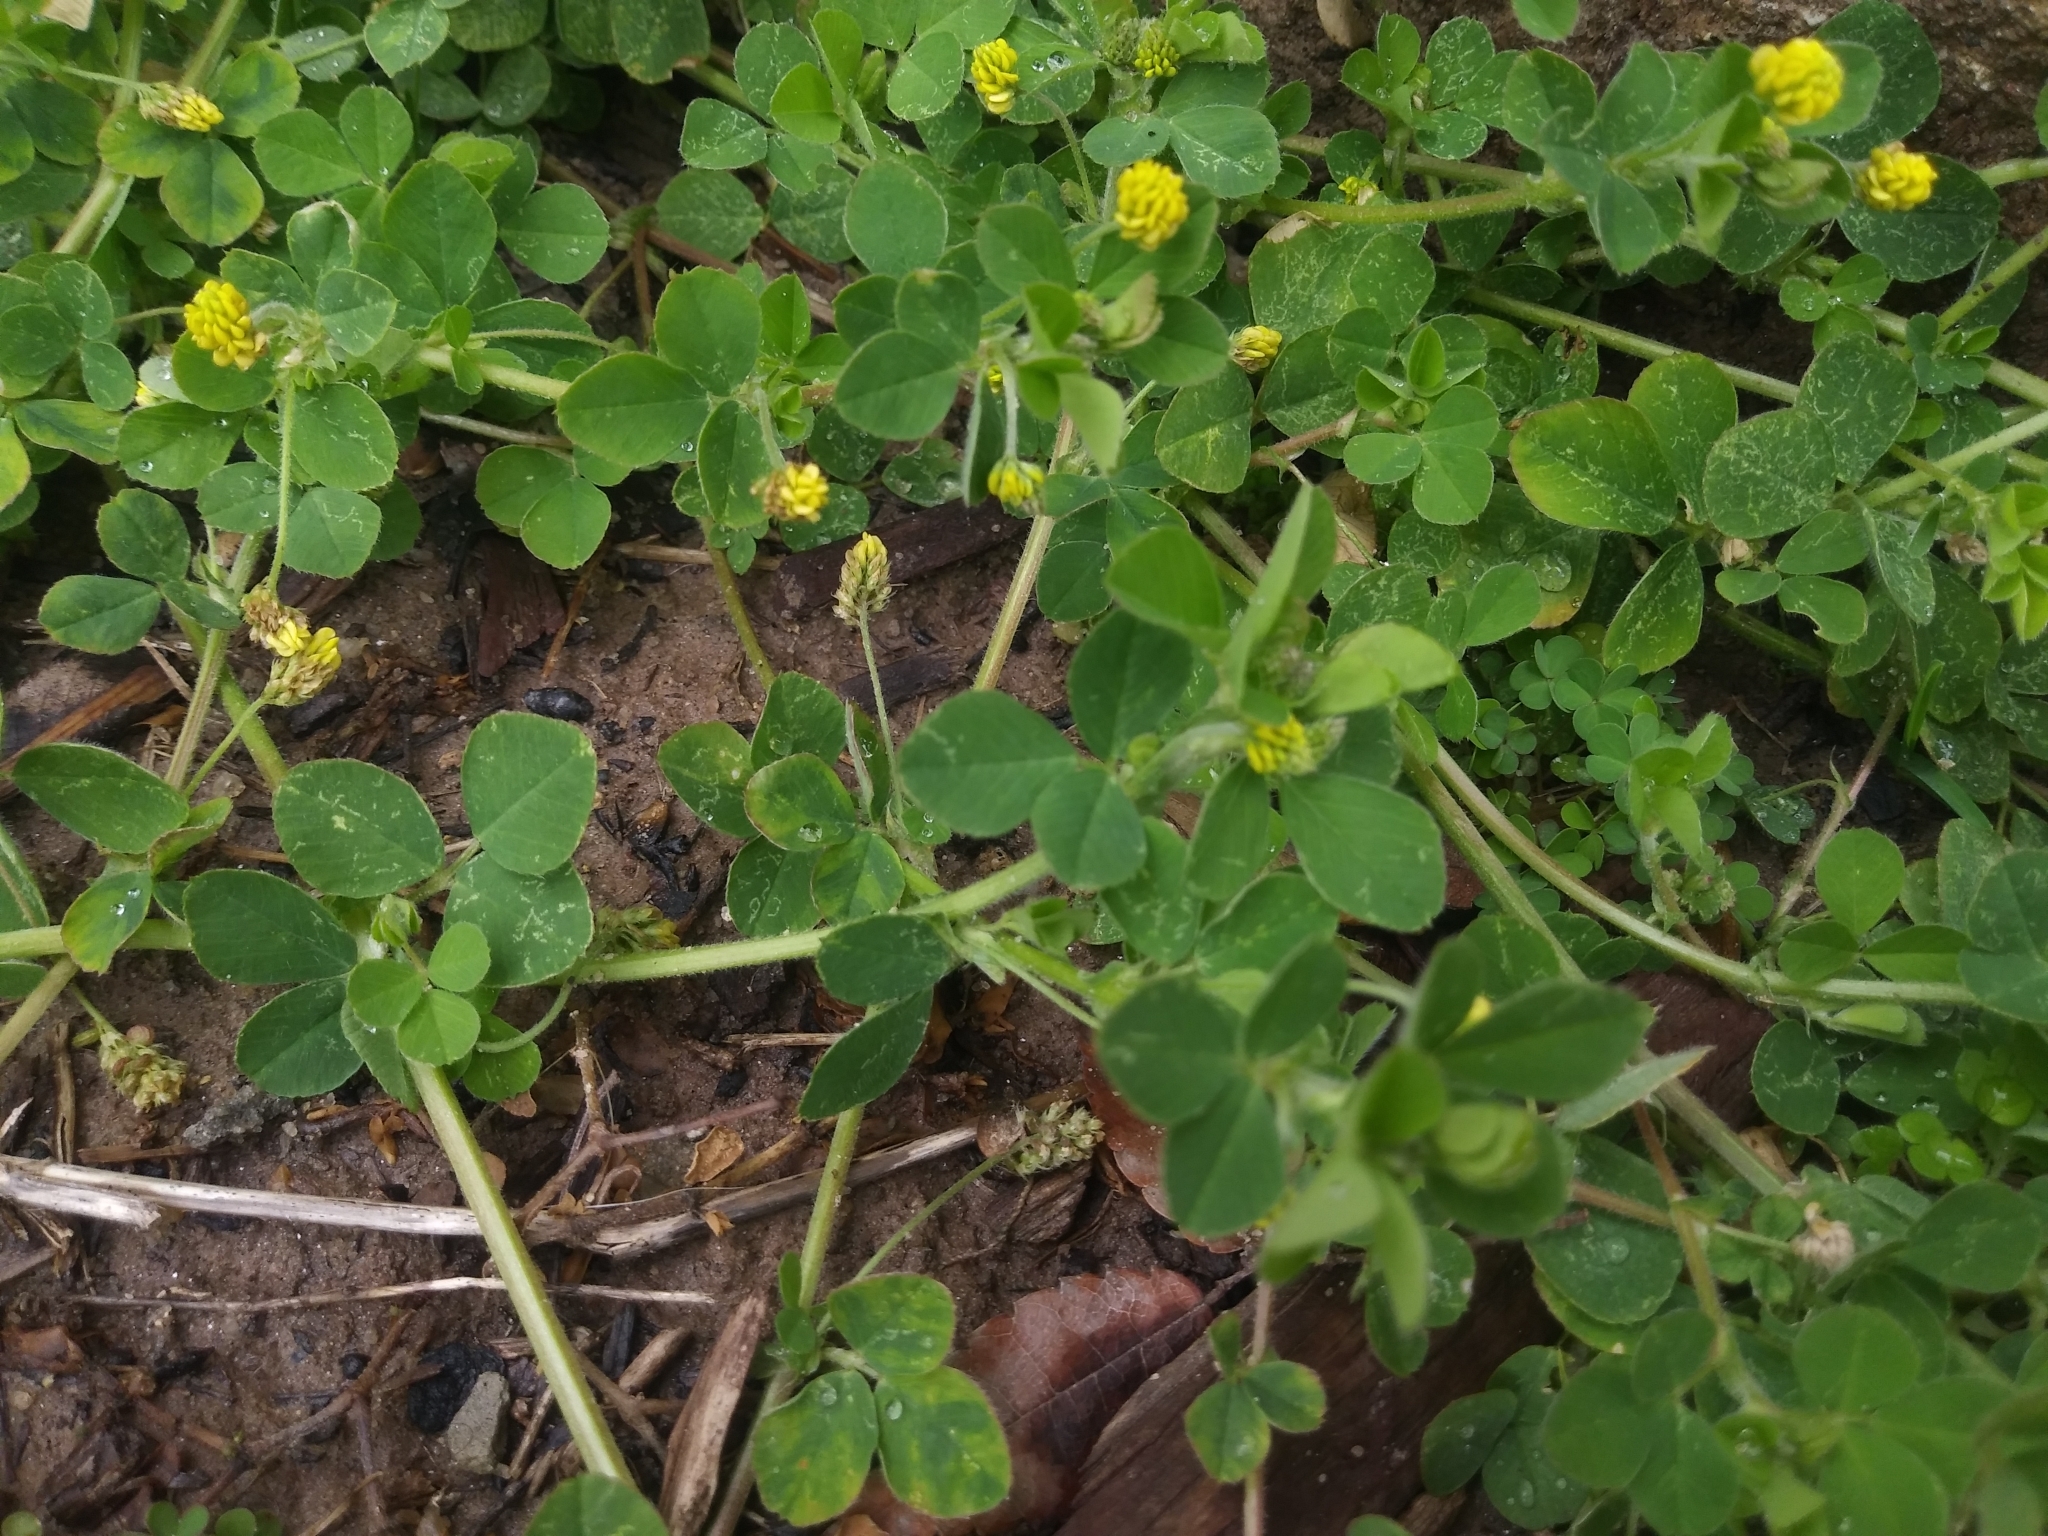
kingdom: Plantae
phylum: Tracheophyta
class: Magnoliopsida
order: Fabales
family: Fabaceae
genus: Medicago
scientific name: Medicago lupulina
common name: Black medick
